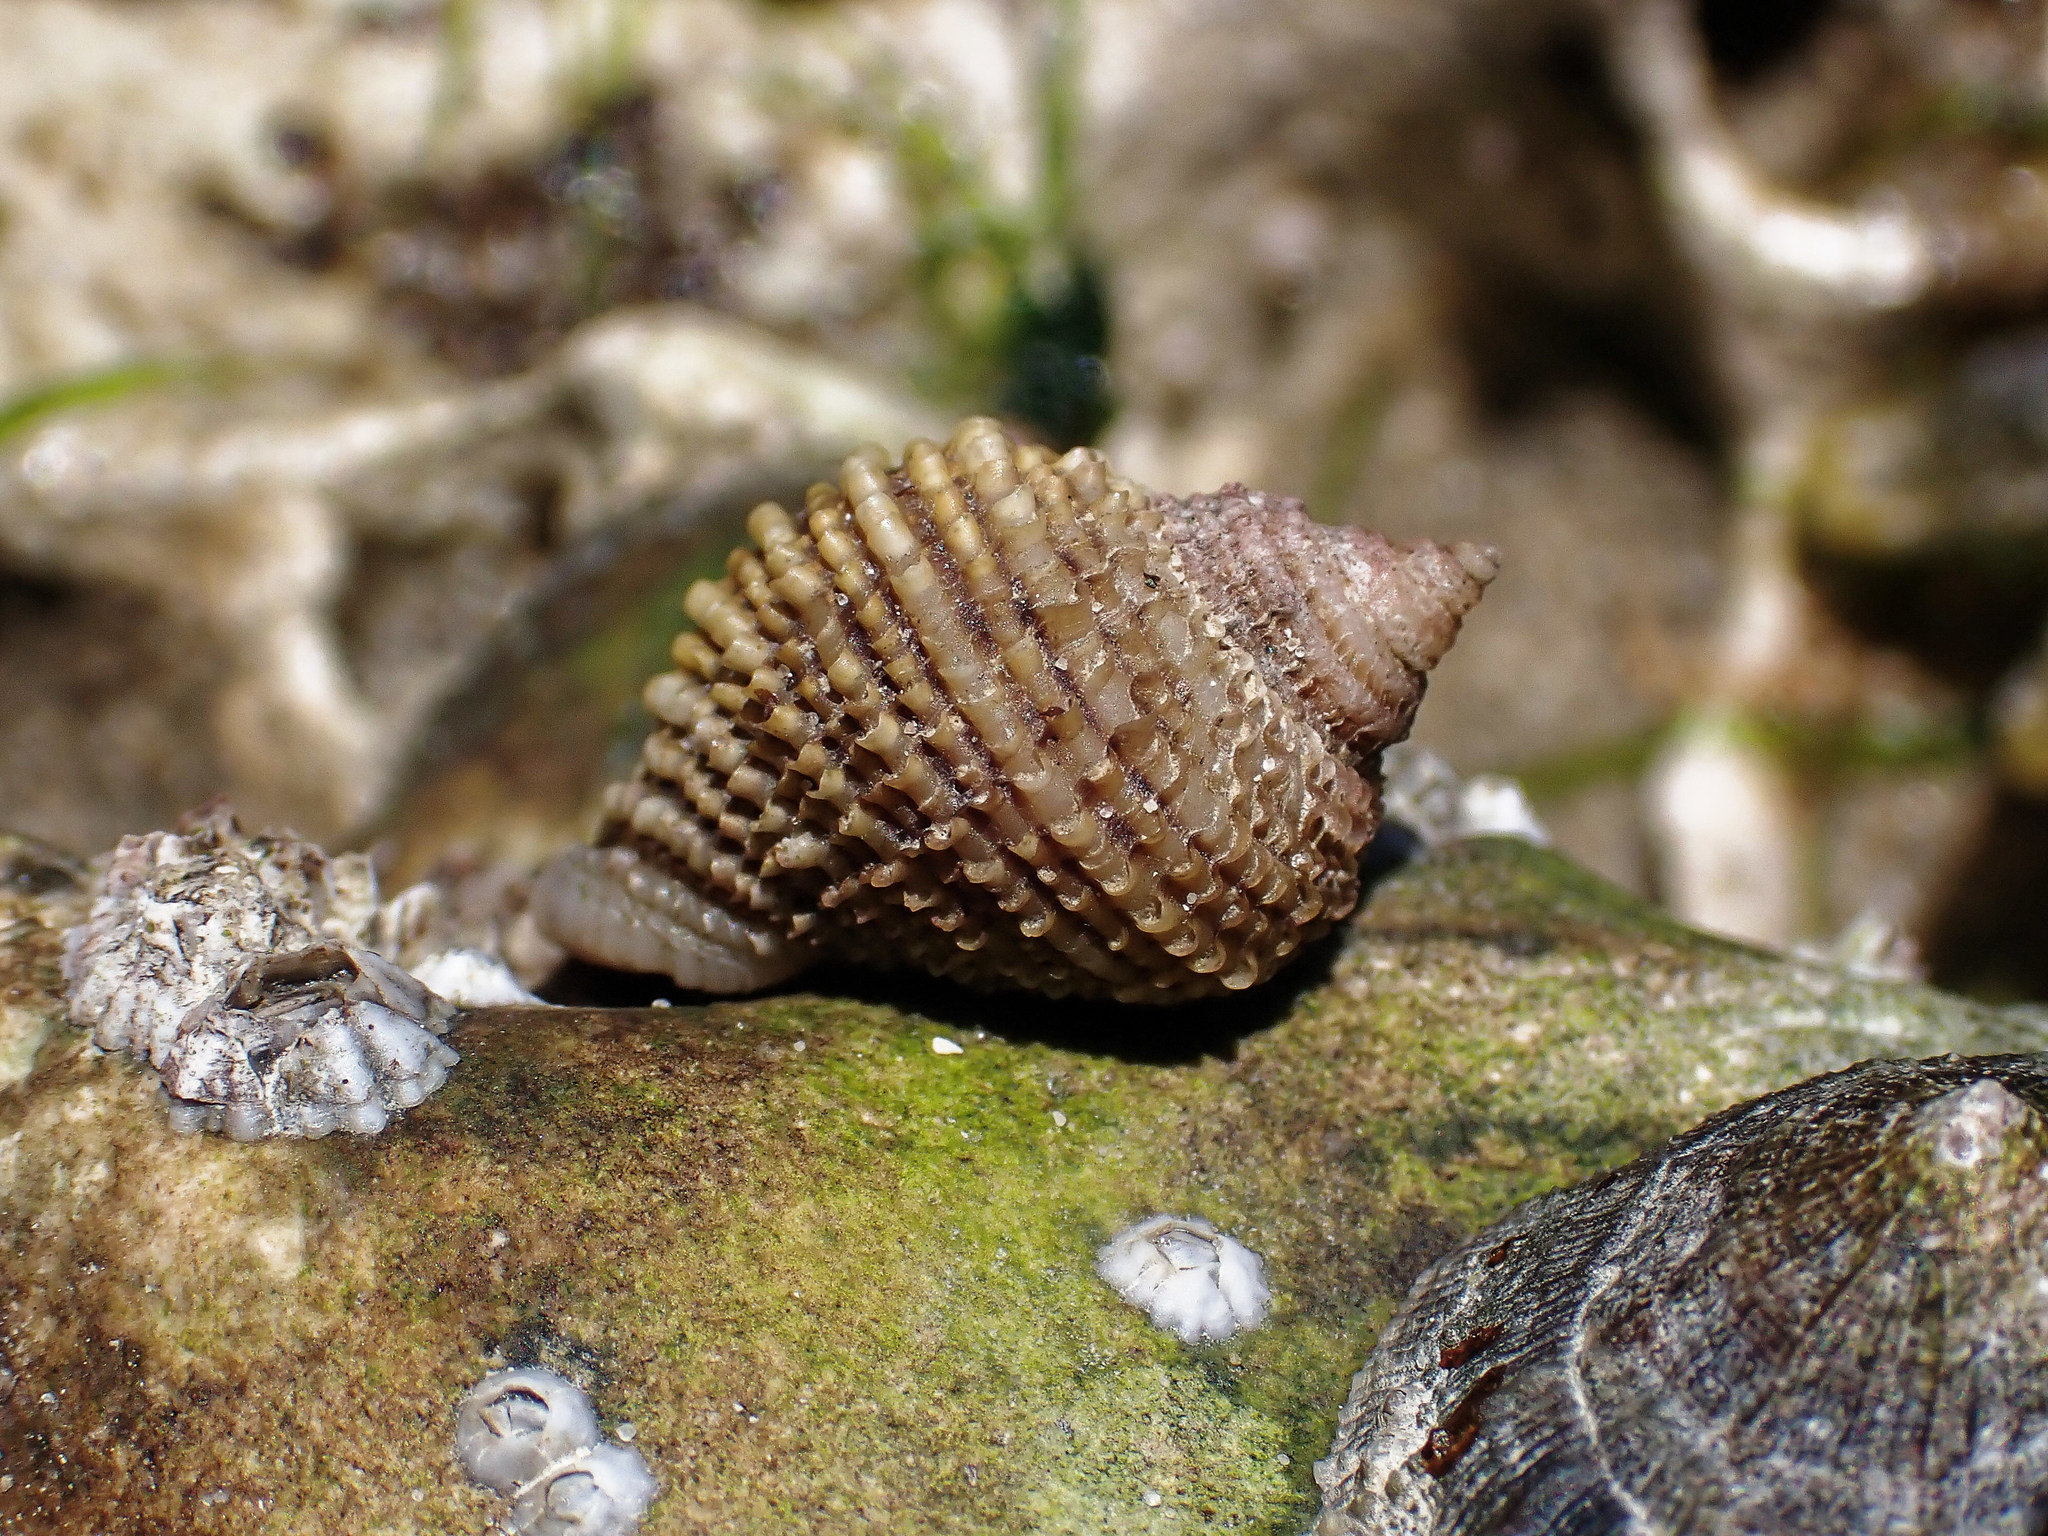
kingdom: Animalia
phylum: Mollusca
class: Gastropoda
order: Neogastropoda
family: Muricidae
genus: Nucella
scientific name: Nucella lapillus
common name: Dog whelk
